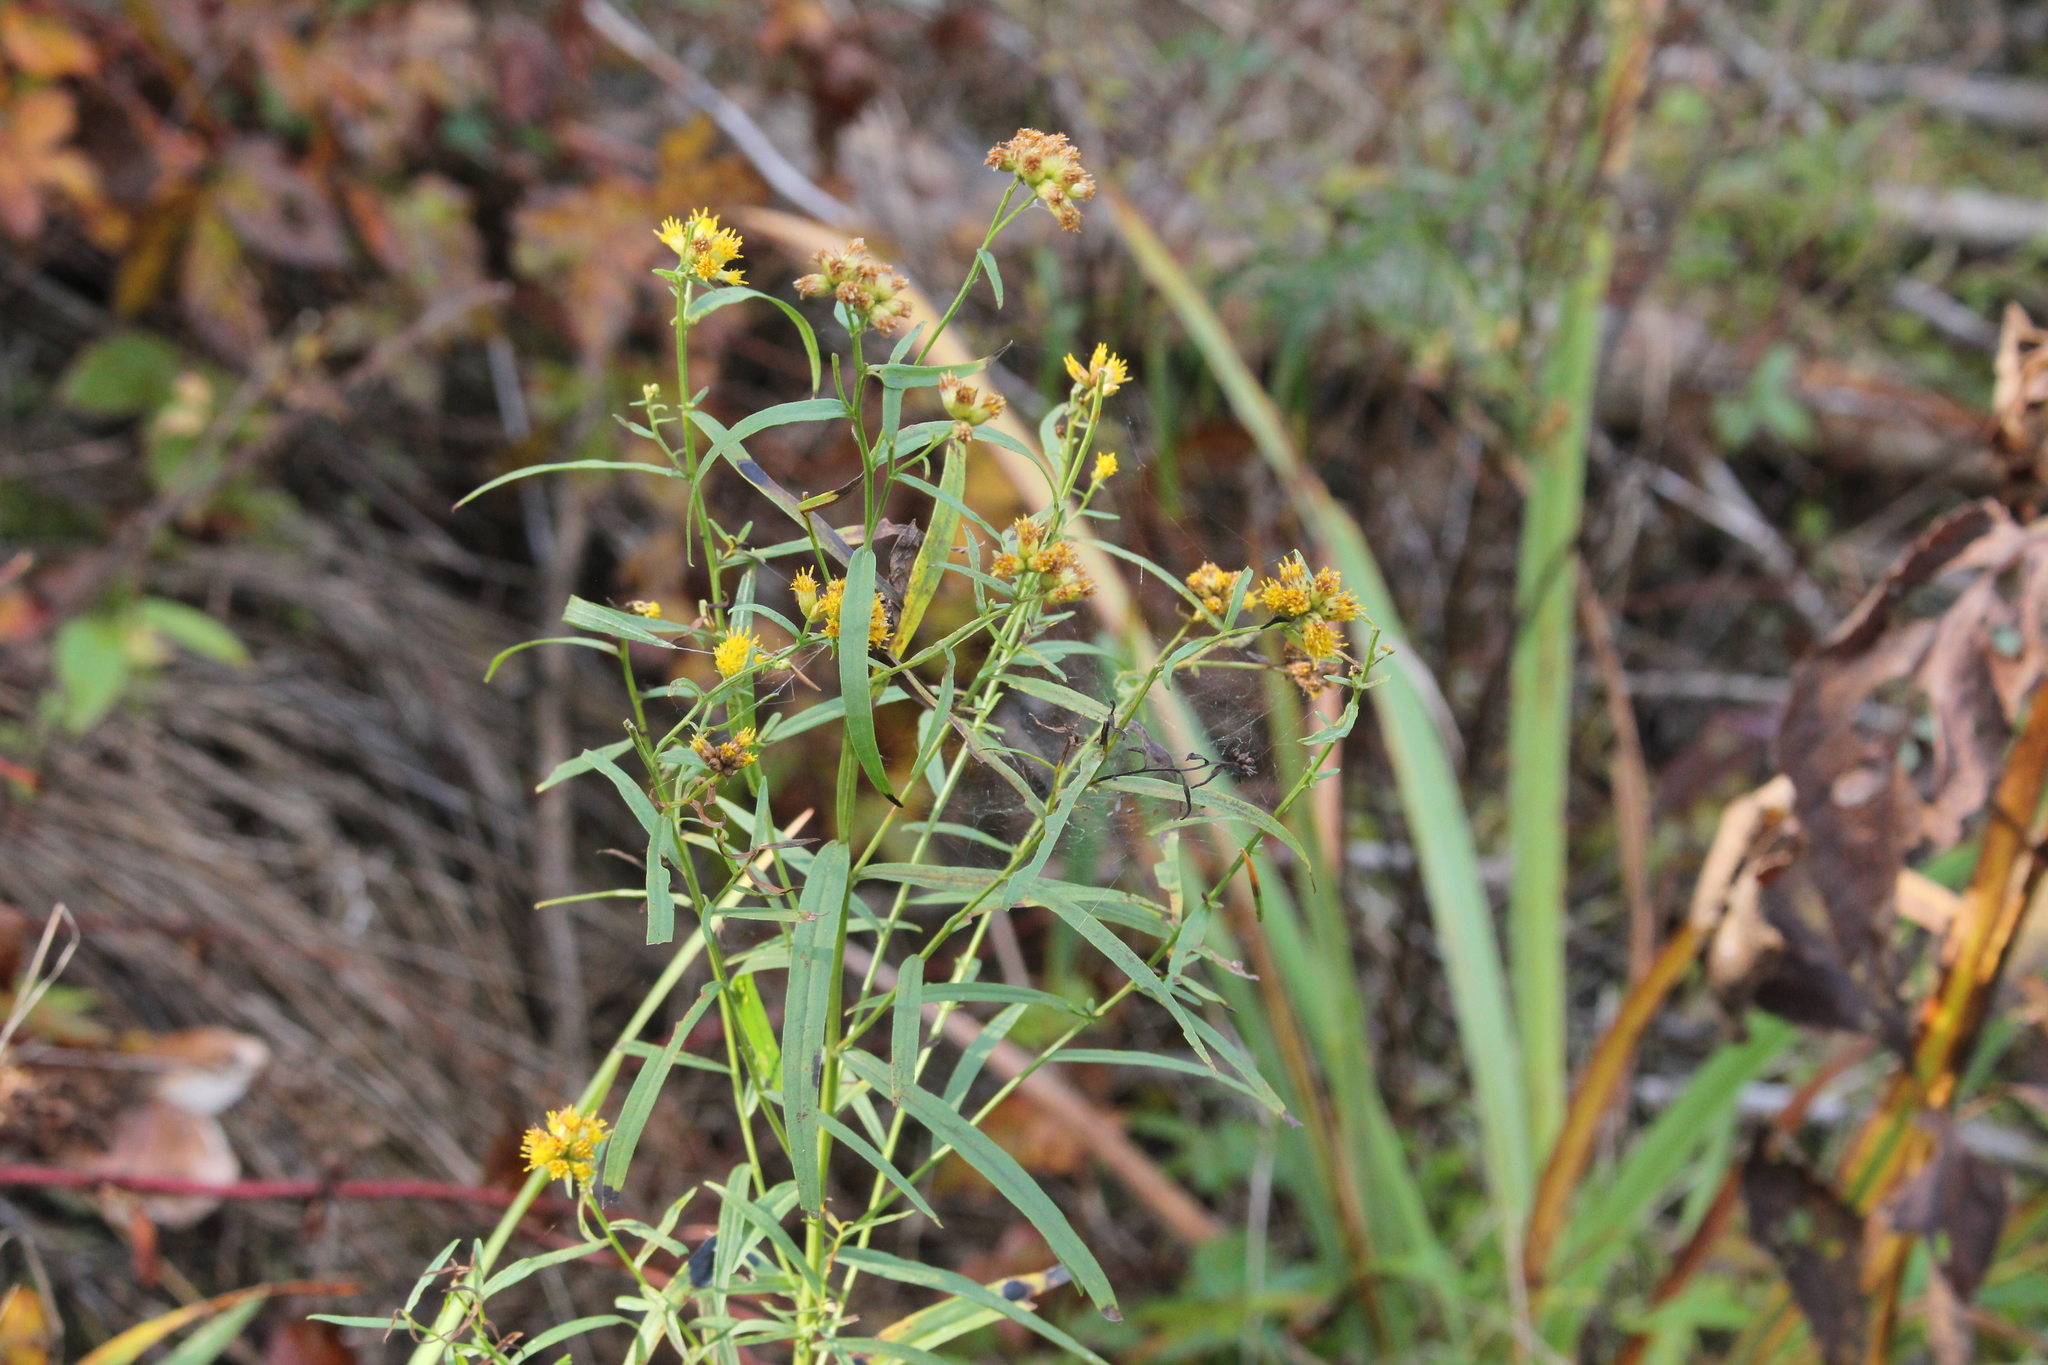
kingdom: Plantae
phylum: Tracheophyta
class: Magnoliopsida
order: Asterales
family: Asteraceae
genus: Euthamia
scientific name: Euthamia graminifolia
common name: Common goldentop
